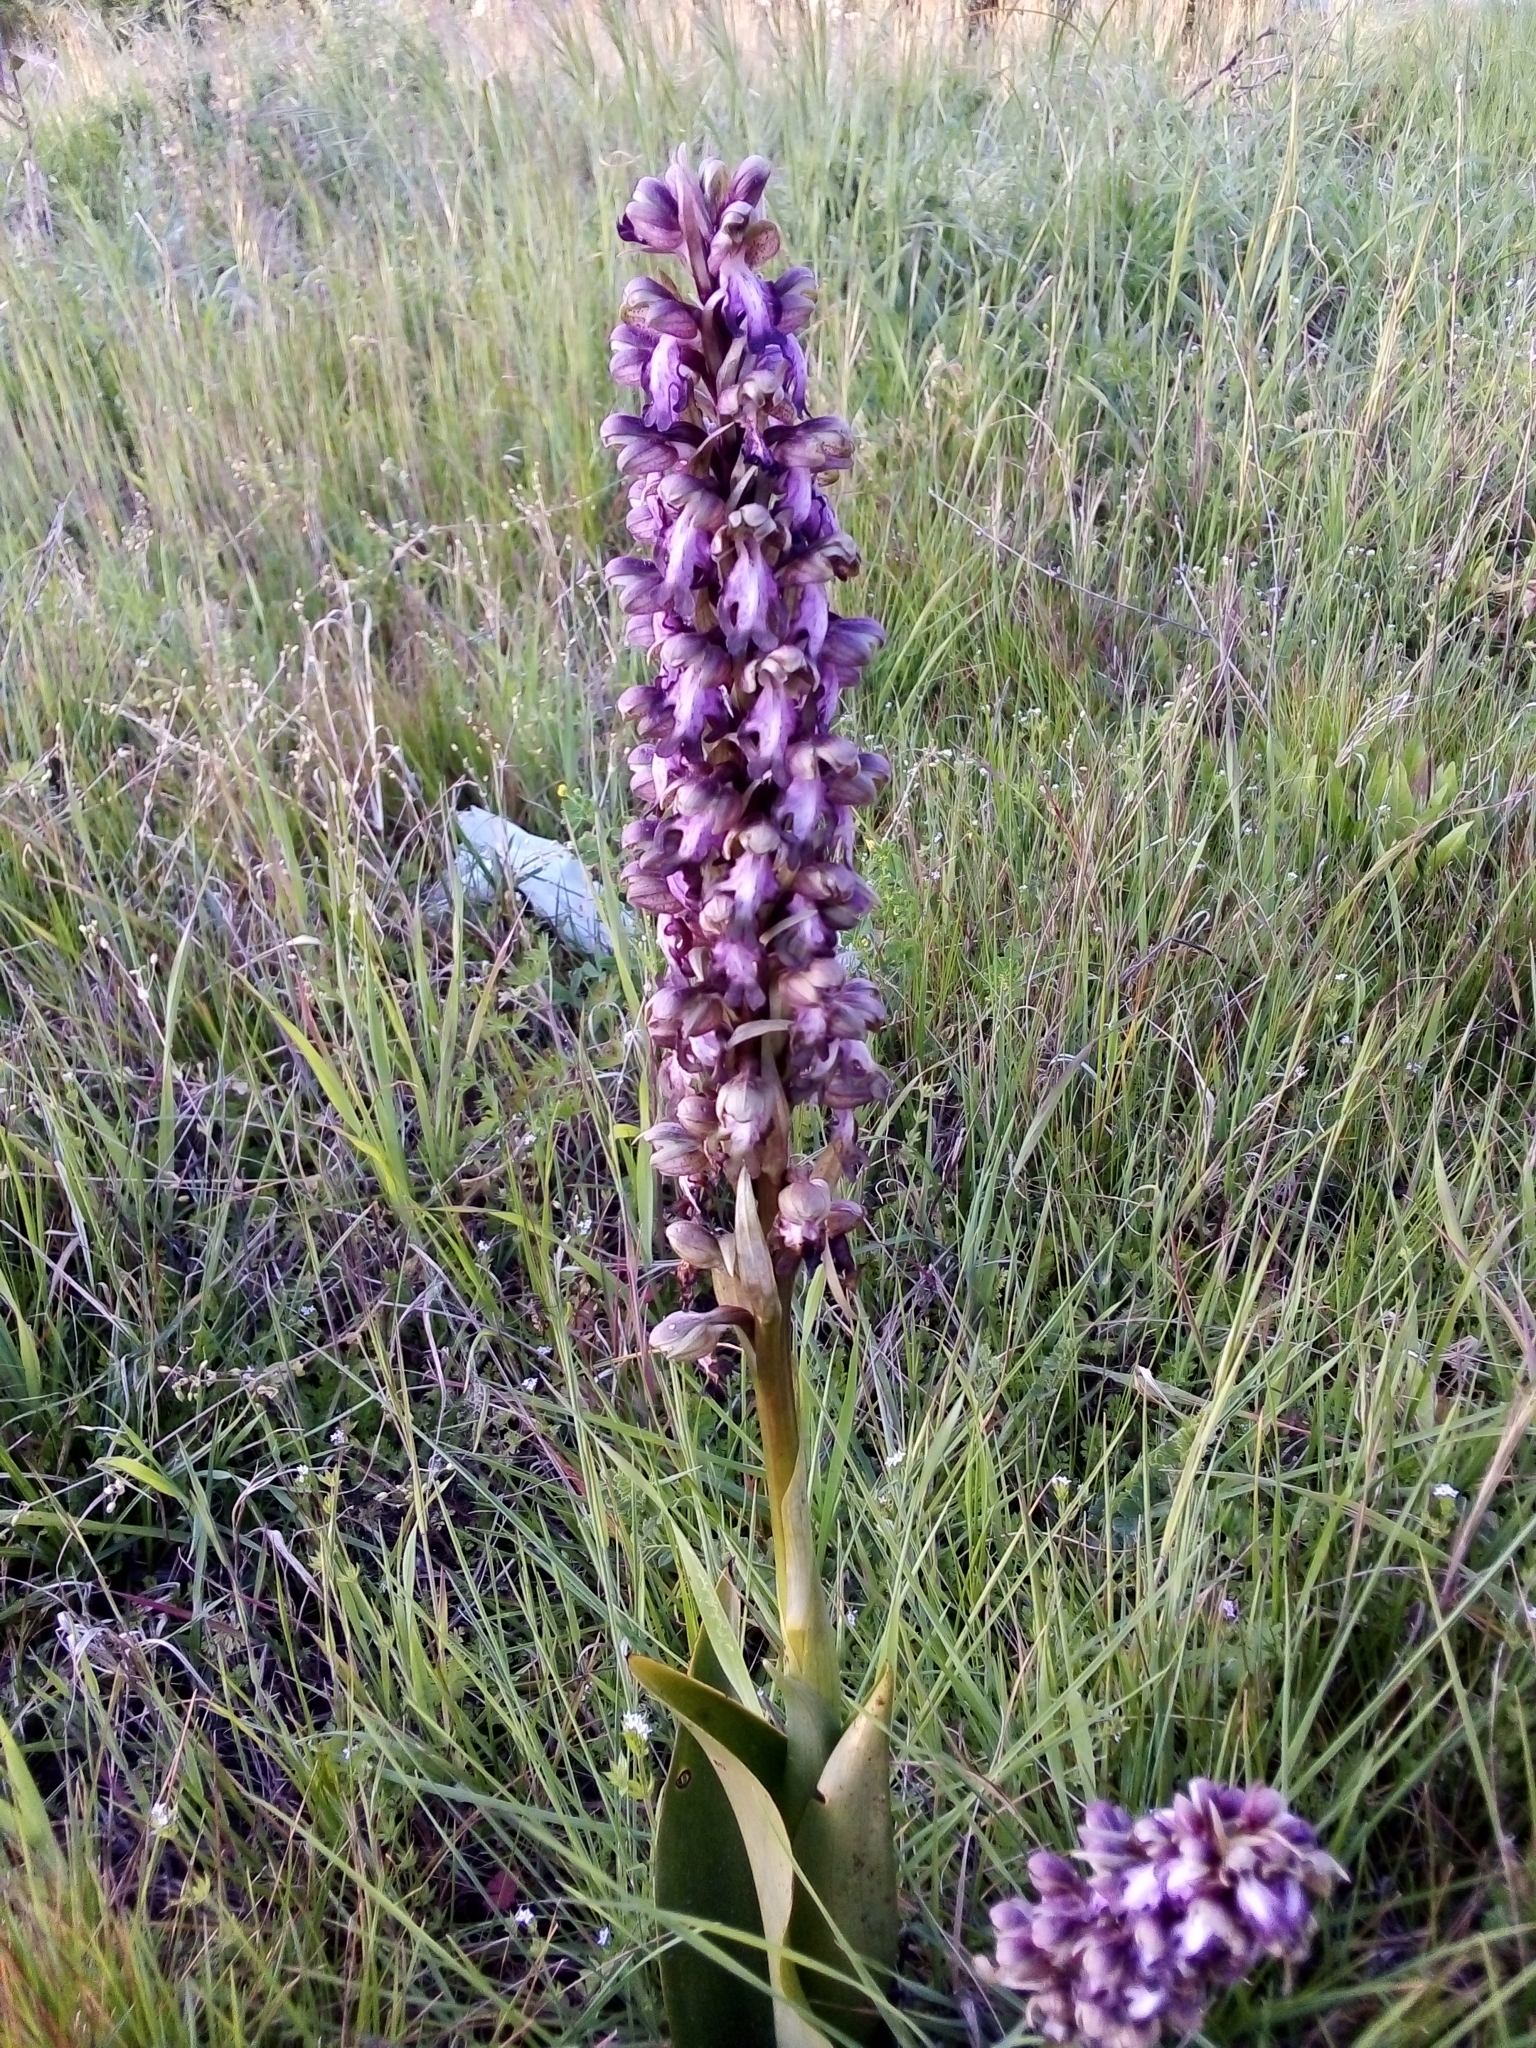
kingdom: Plantae
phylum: Tracheophyta
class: Liliopsida
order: Asparagales
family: Orchidaceae
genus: Himantoglossum
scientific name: Himantoglossum robertianum
